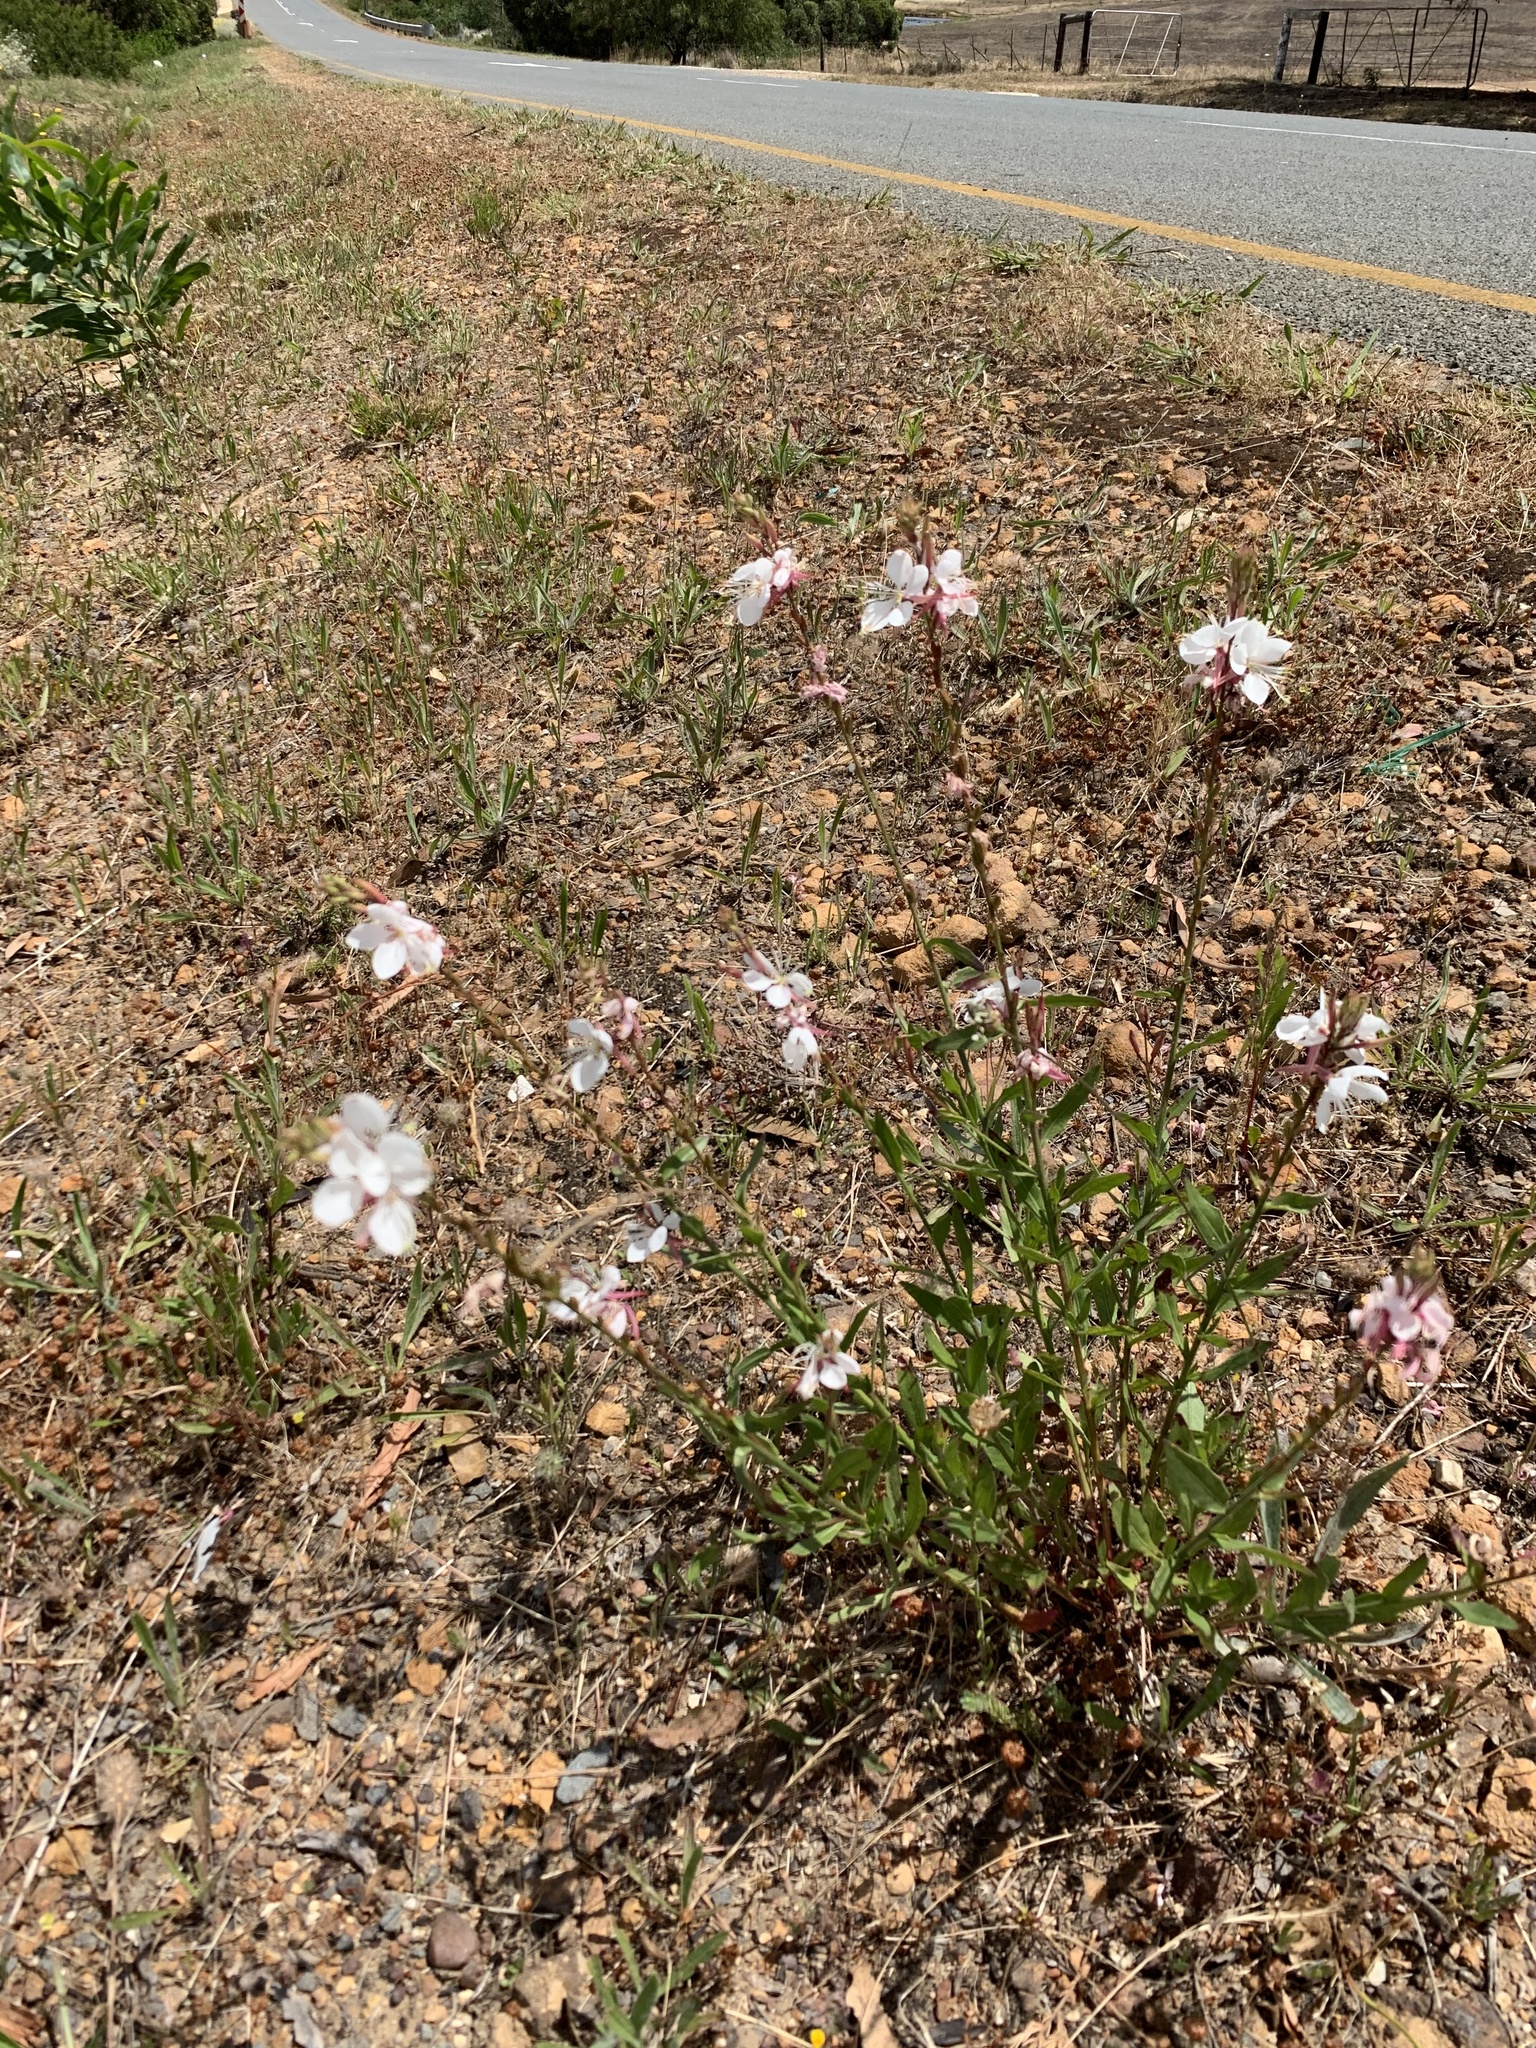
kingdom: Plantae
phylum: Tracheophyta
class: Magnoliopsida
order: Myrtales
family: Onagraceae
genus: Oenothera
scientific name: Oenothera lindheimeri
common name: Lindheimer's beeblossom
